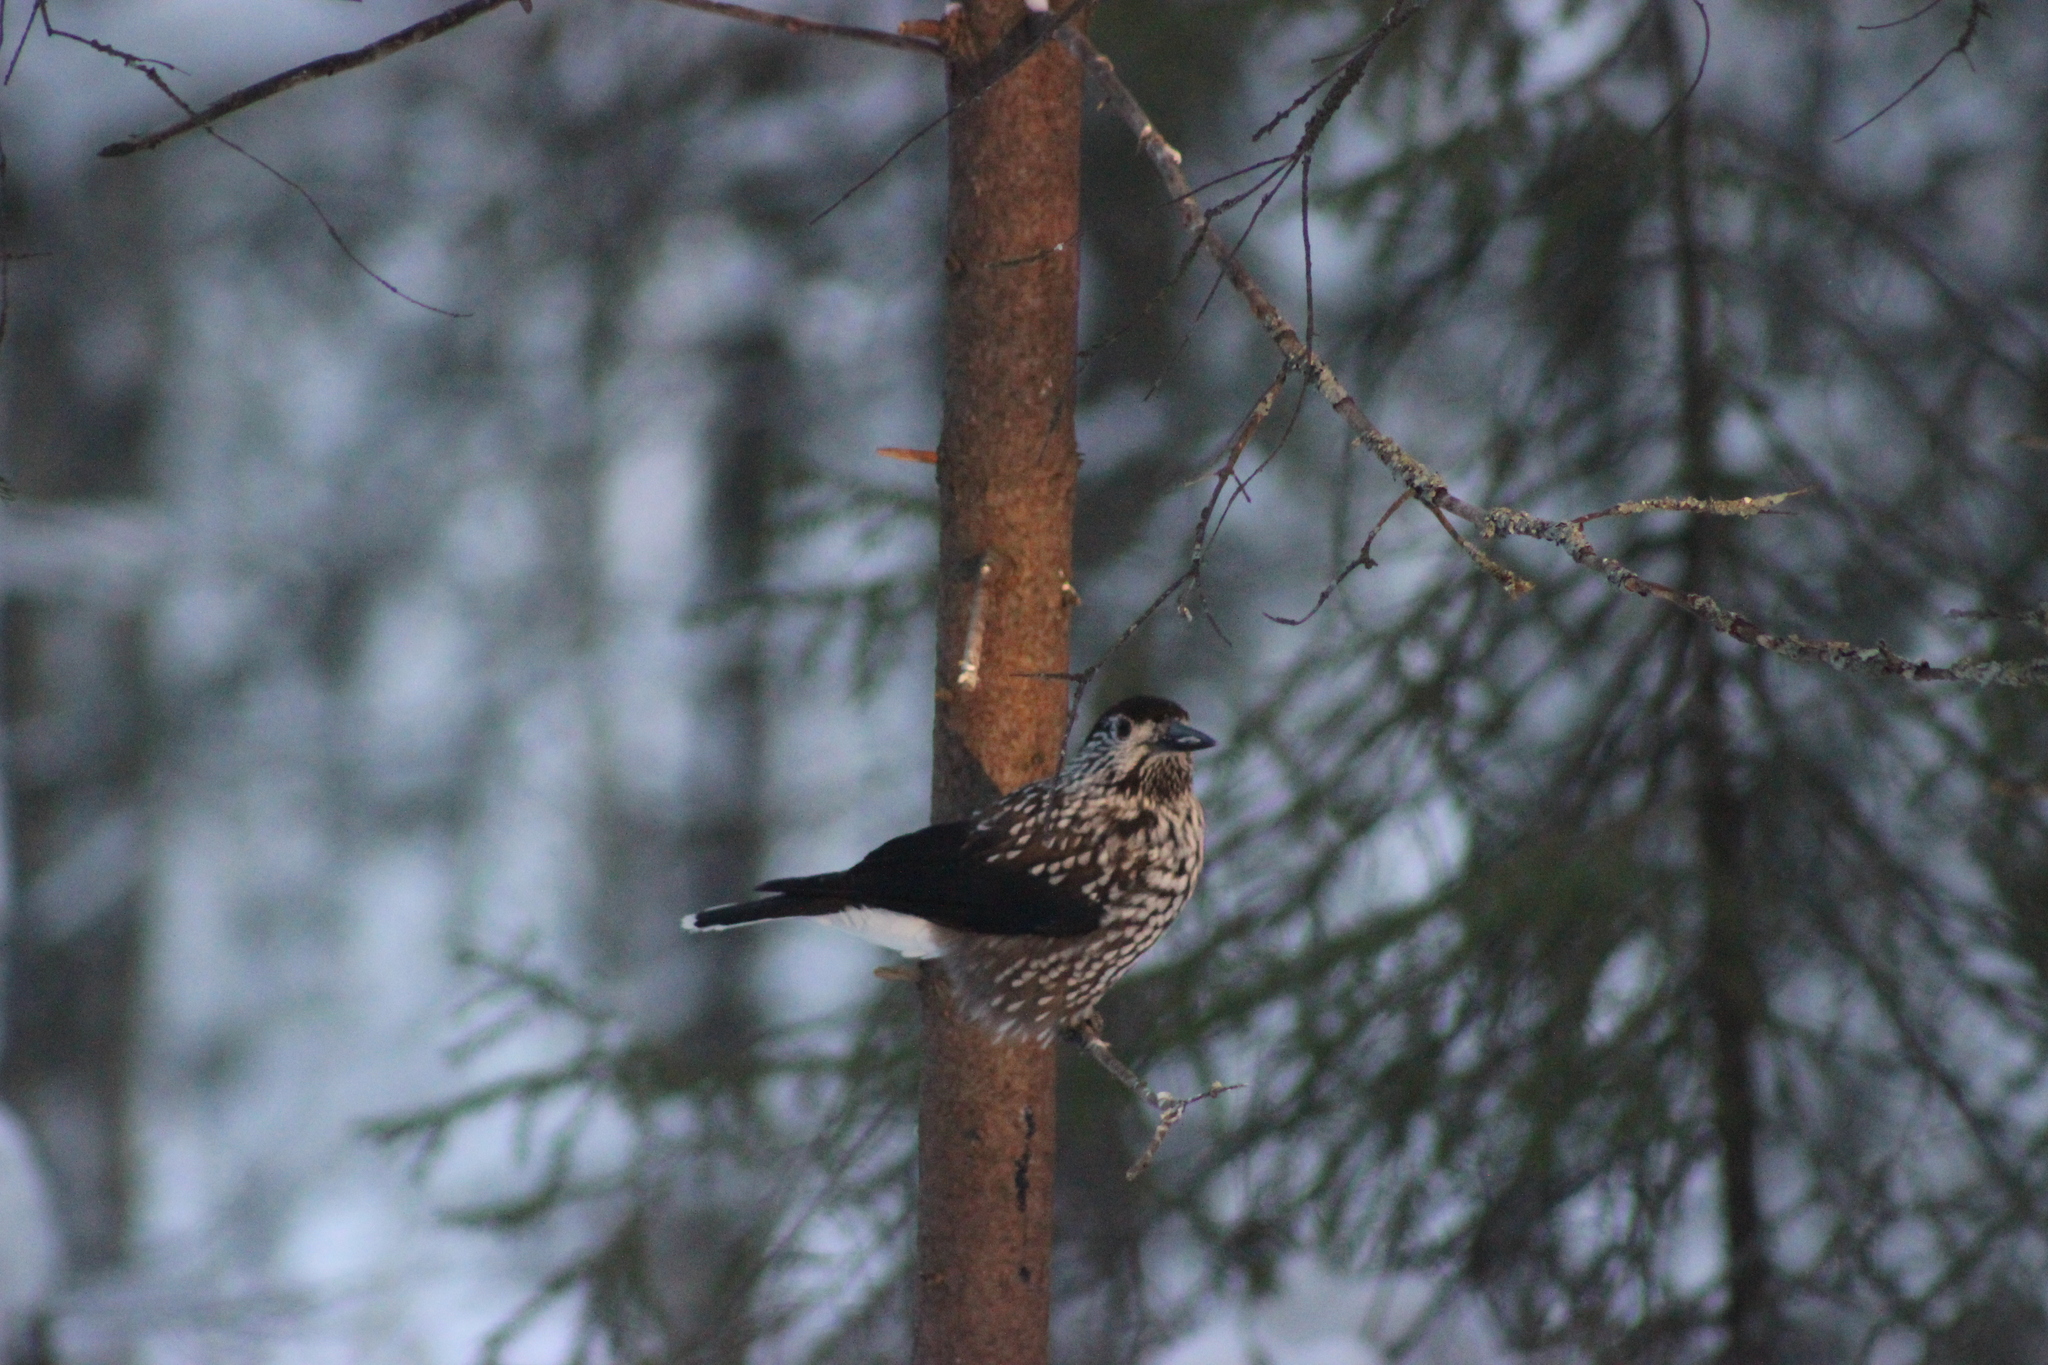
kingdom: Animalia
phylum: Chordata
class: Aves
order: Passeriformes
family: Corvidae
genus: Nucifraga
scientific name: Nucifraga caryocatactes
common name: Spotted nutcracker
